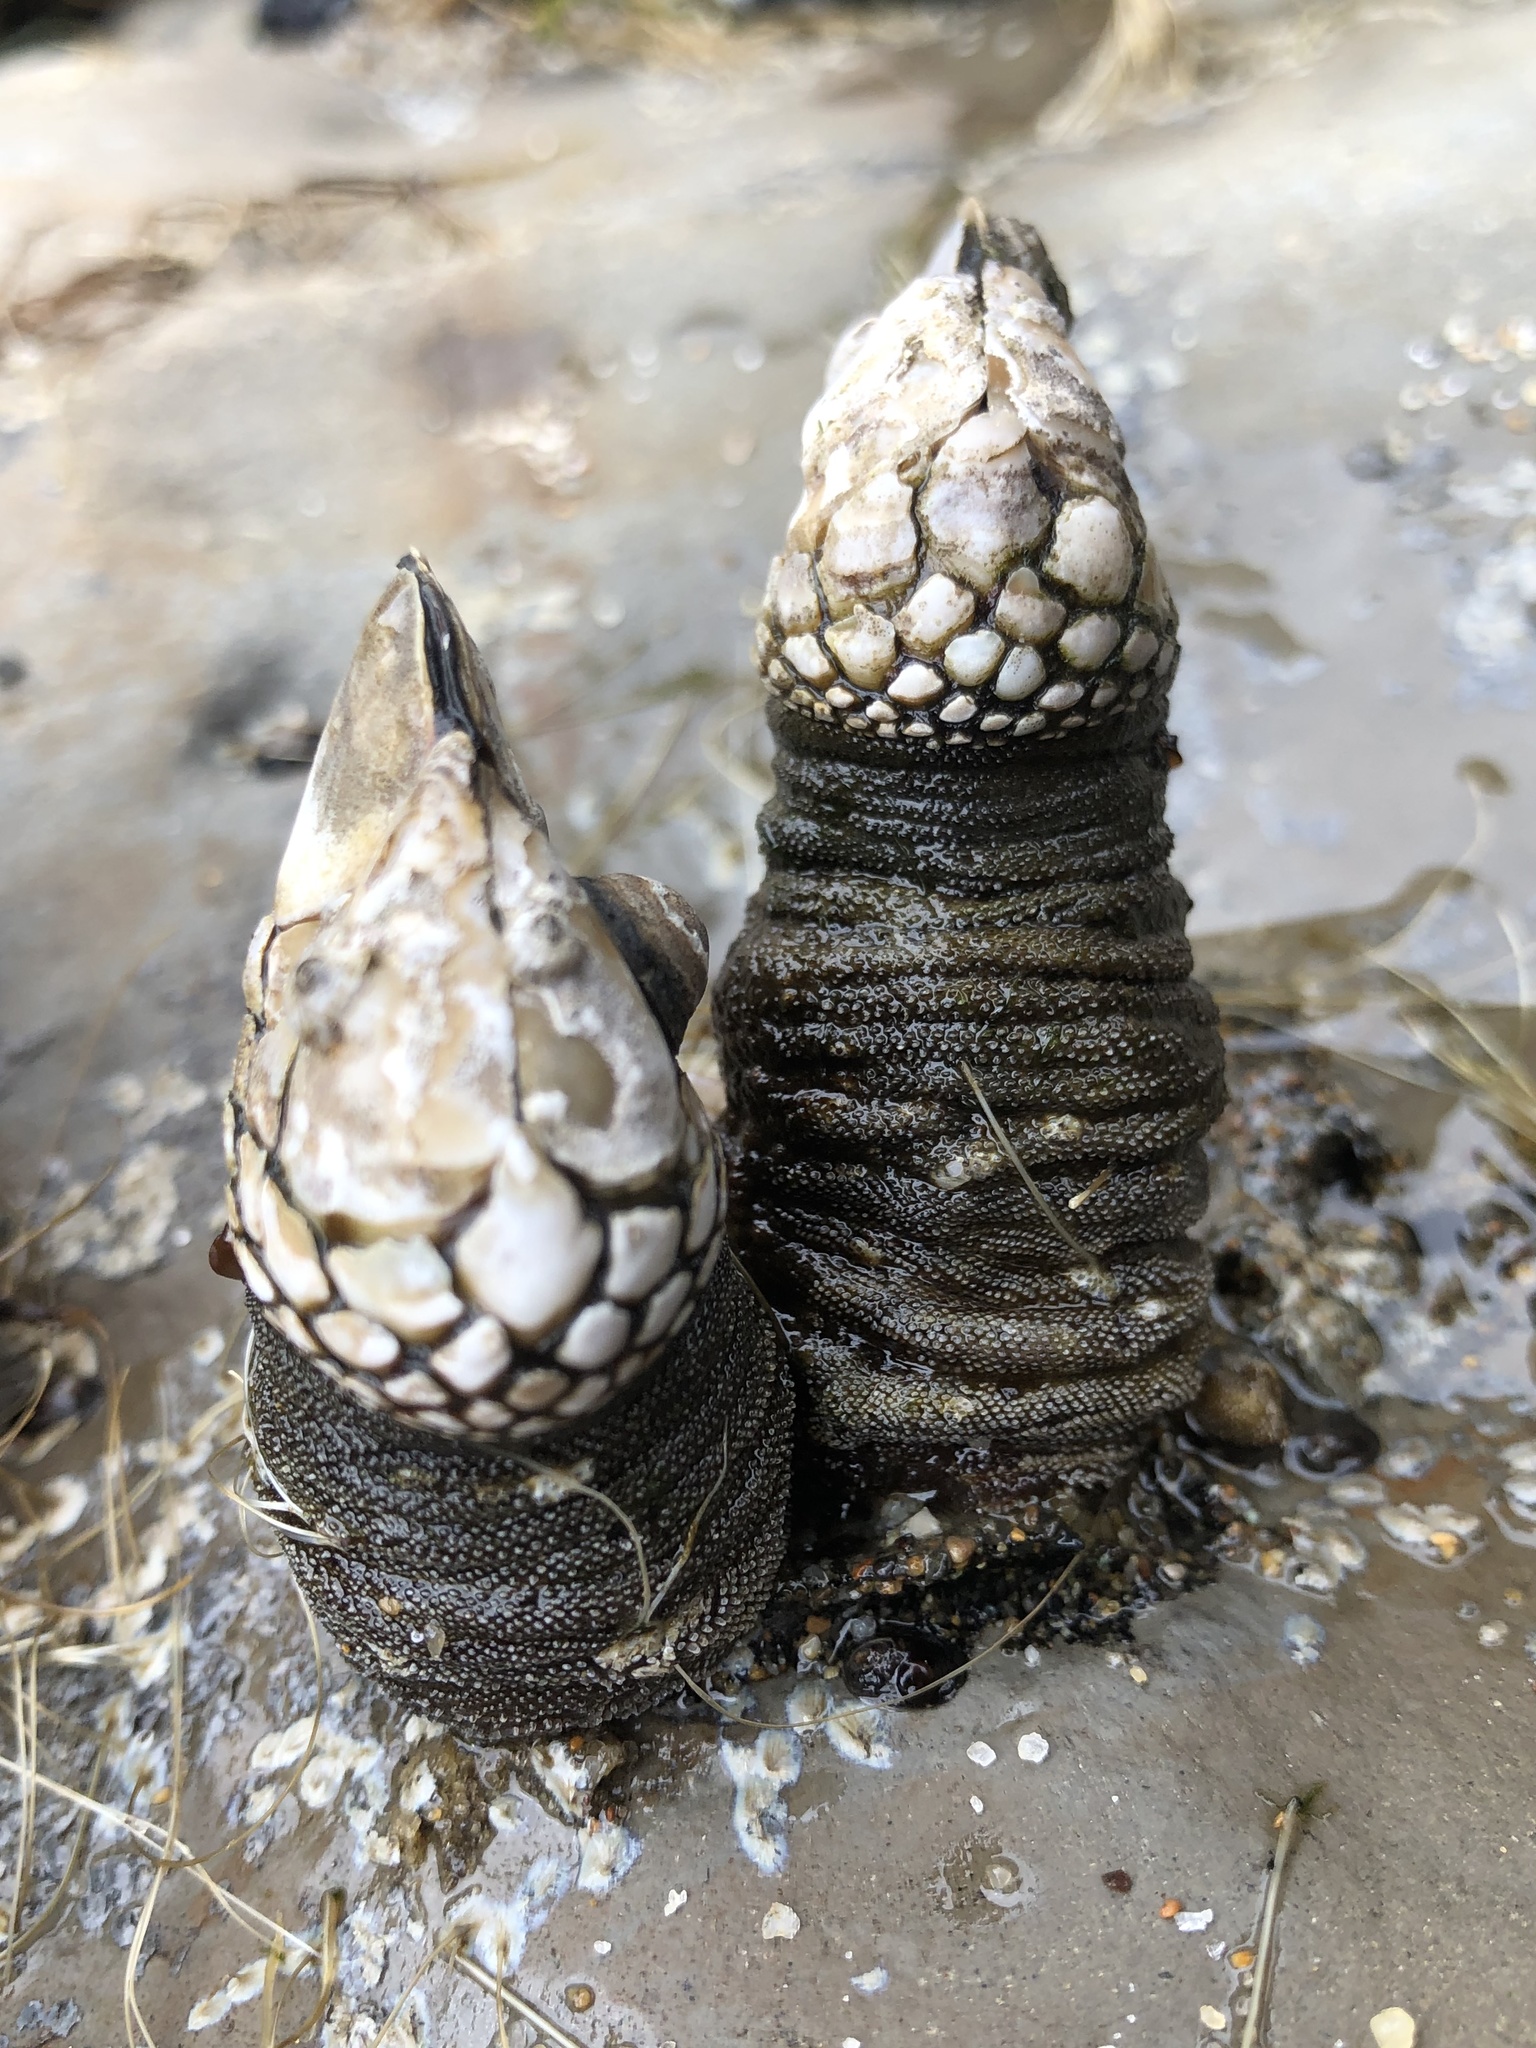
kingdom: Animalia
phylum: Arthropoda
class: Maxillopoda
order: Pedunculata
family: Pollicipedidae
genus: Pollicipes
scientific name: Pollicipes polymerus
